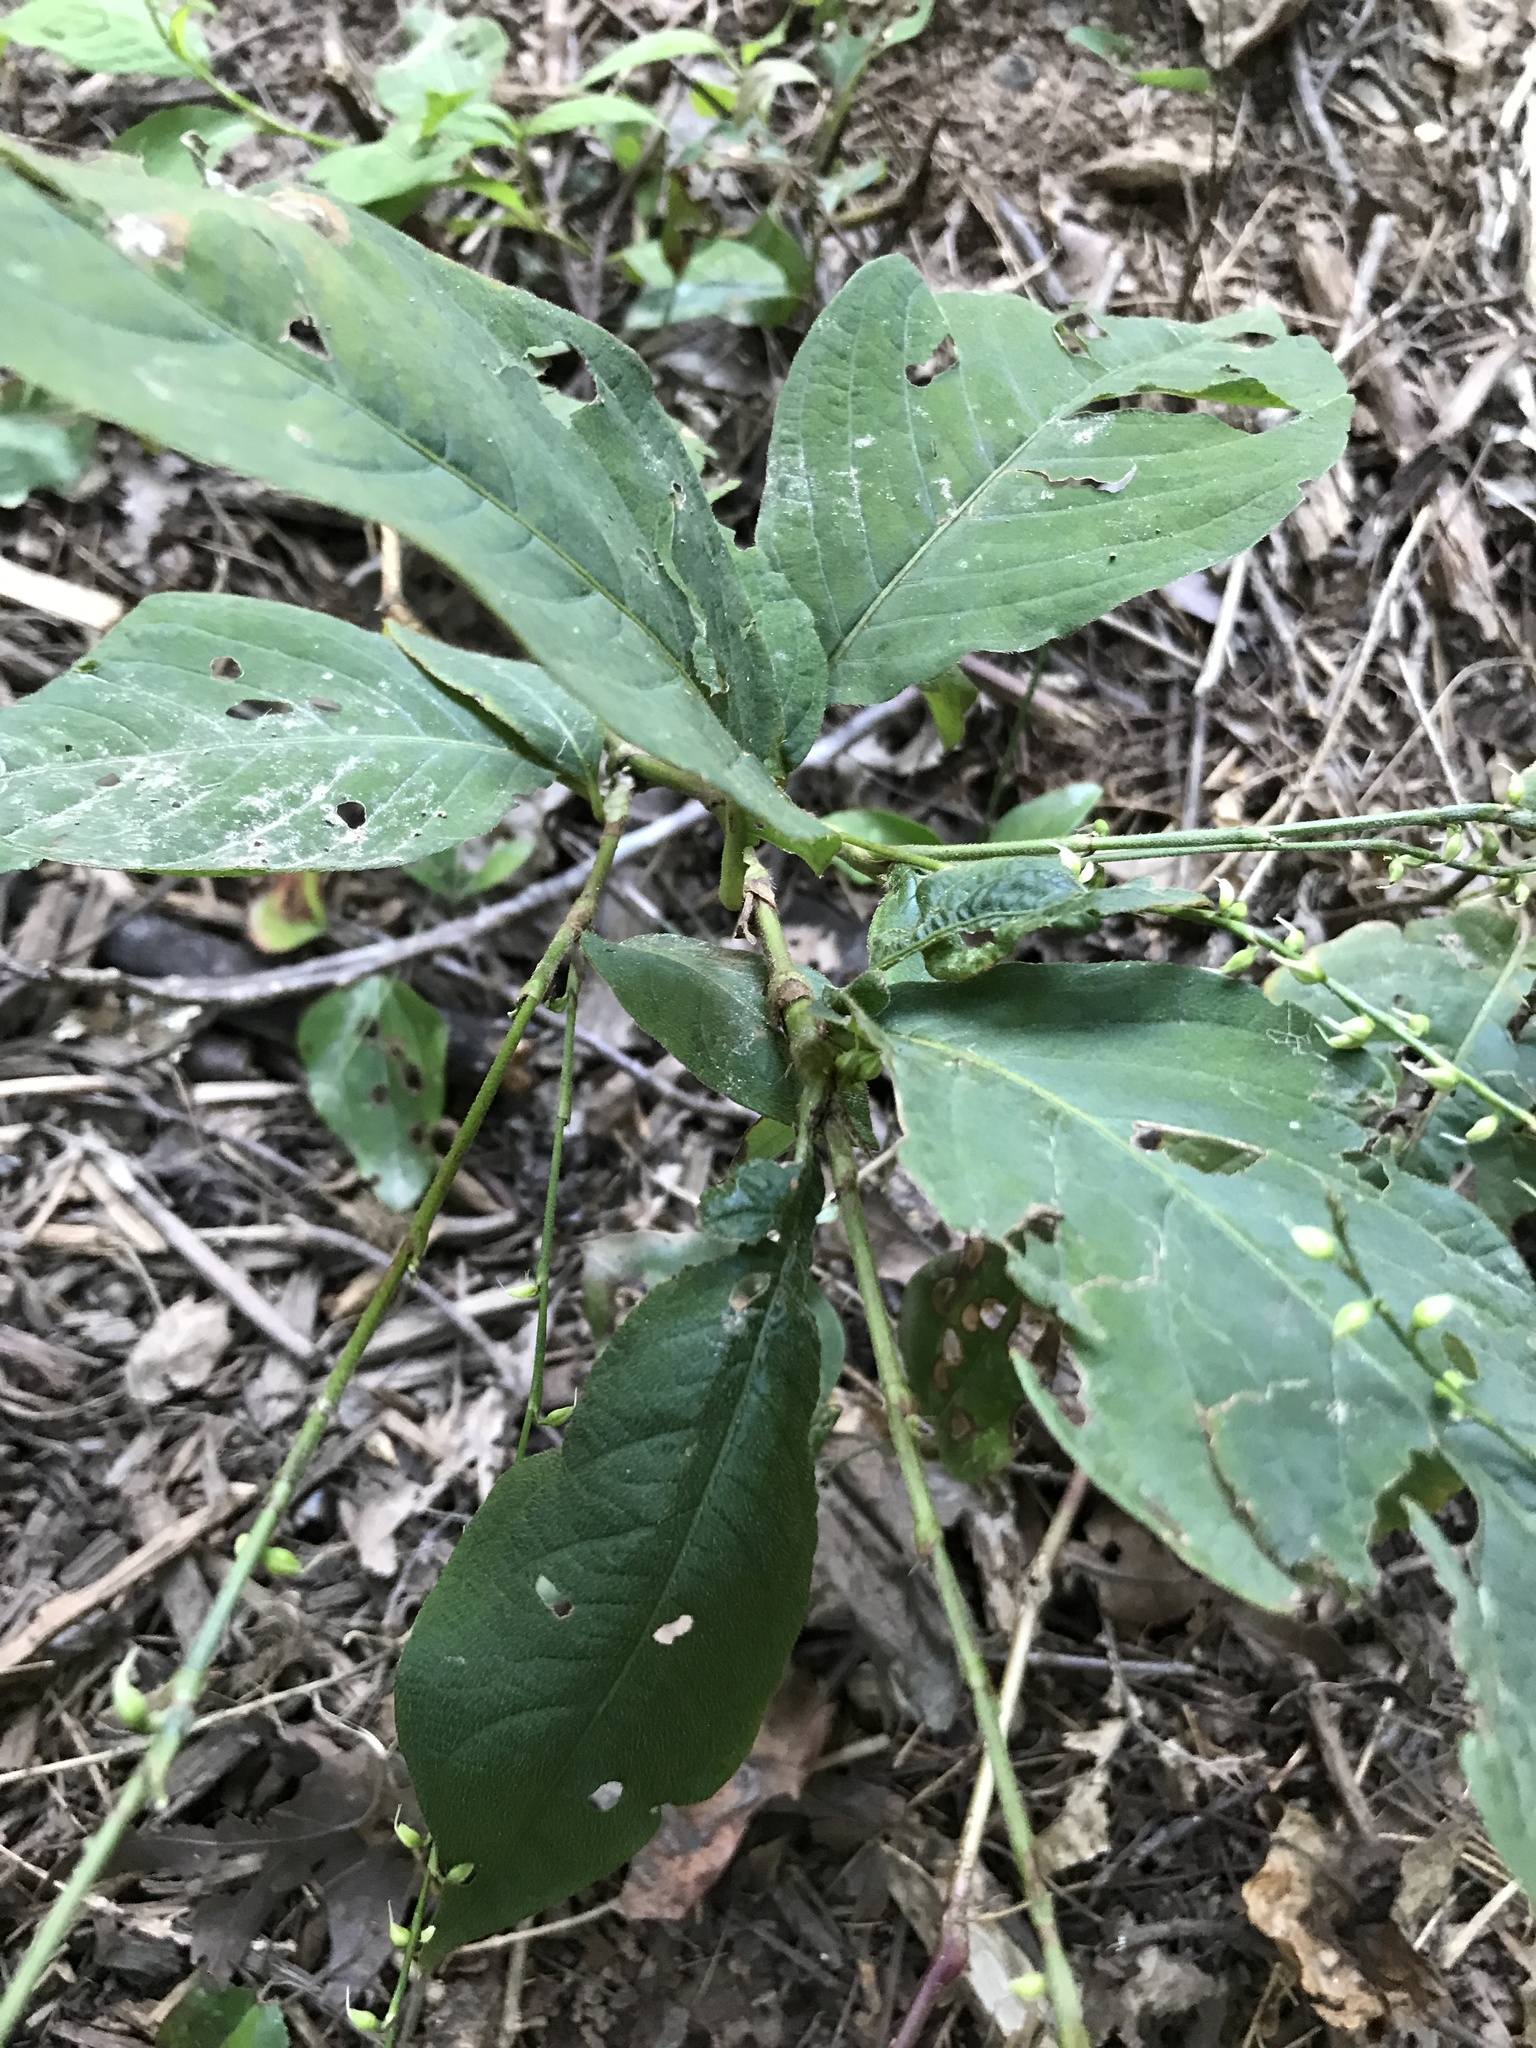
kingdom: Plantae
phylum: Tracheophyta
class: Magnoliopsida
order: Caryophyllales
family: Polygonaceae
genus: Persicaria
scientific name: Persicaria virginiana
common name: Jumpseed
